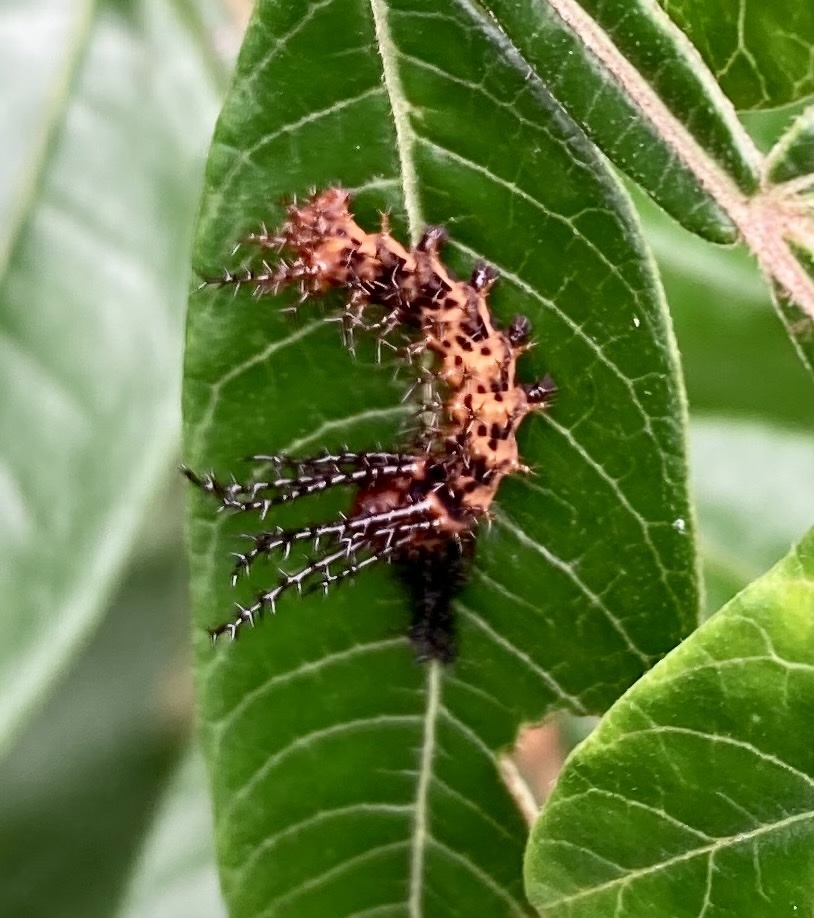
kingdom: Animalia
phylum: Arthropoda
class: Insecta
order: Lepidoptera
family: Saturniidae
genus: Citheronia
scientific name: Citheronia regalis
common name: Hickory horned devil
